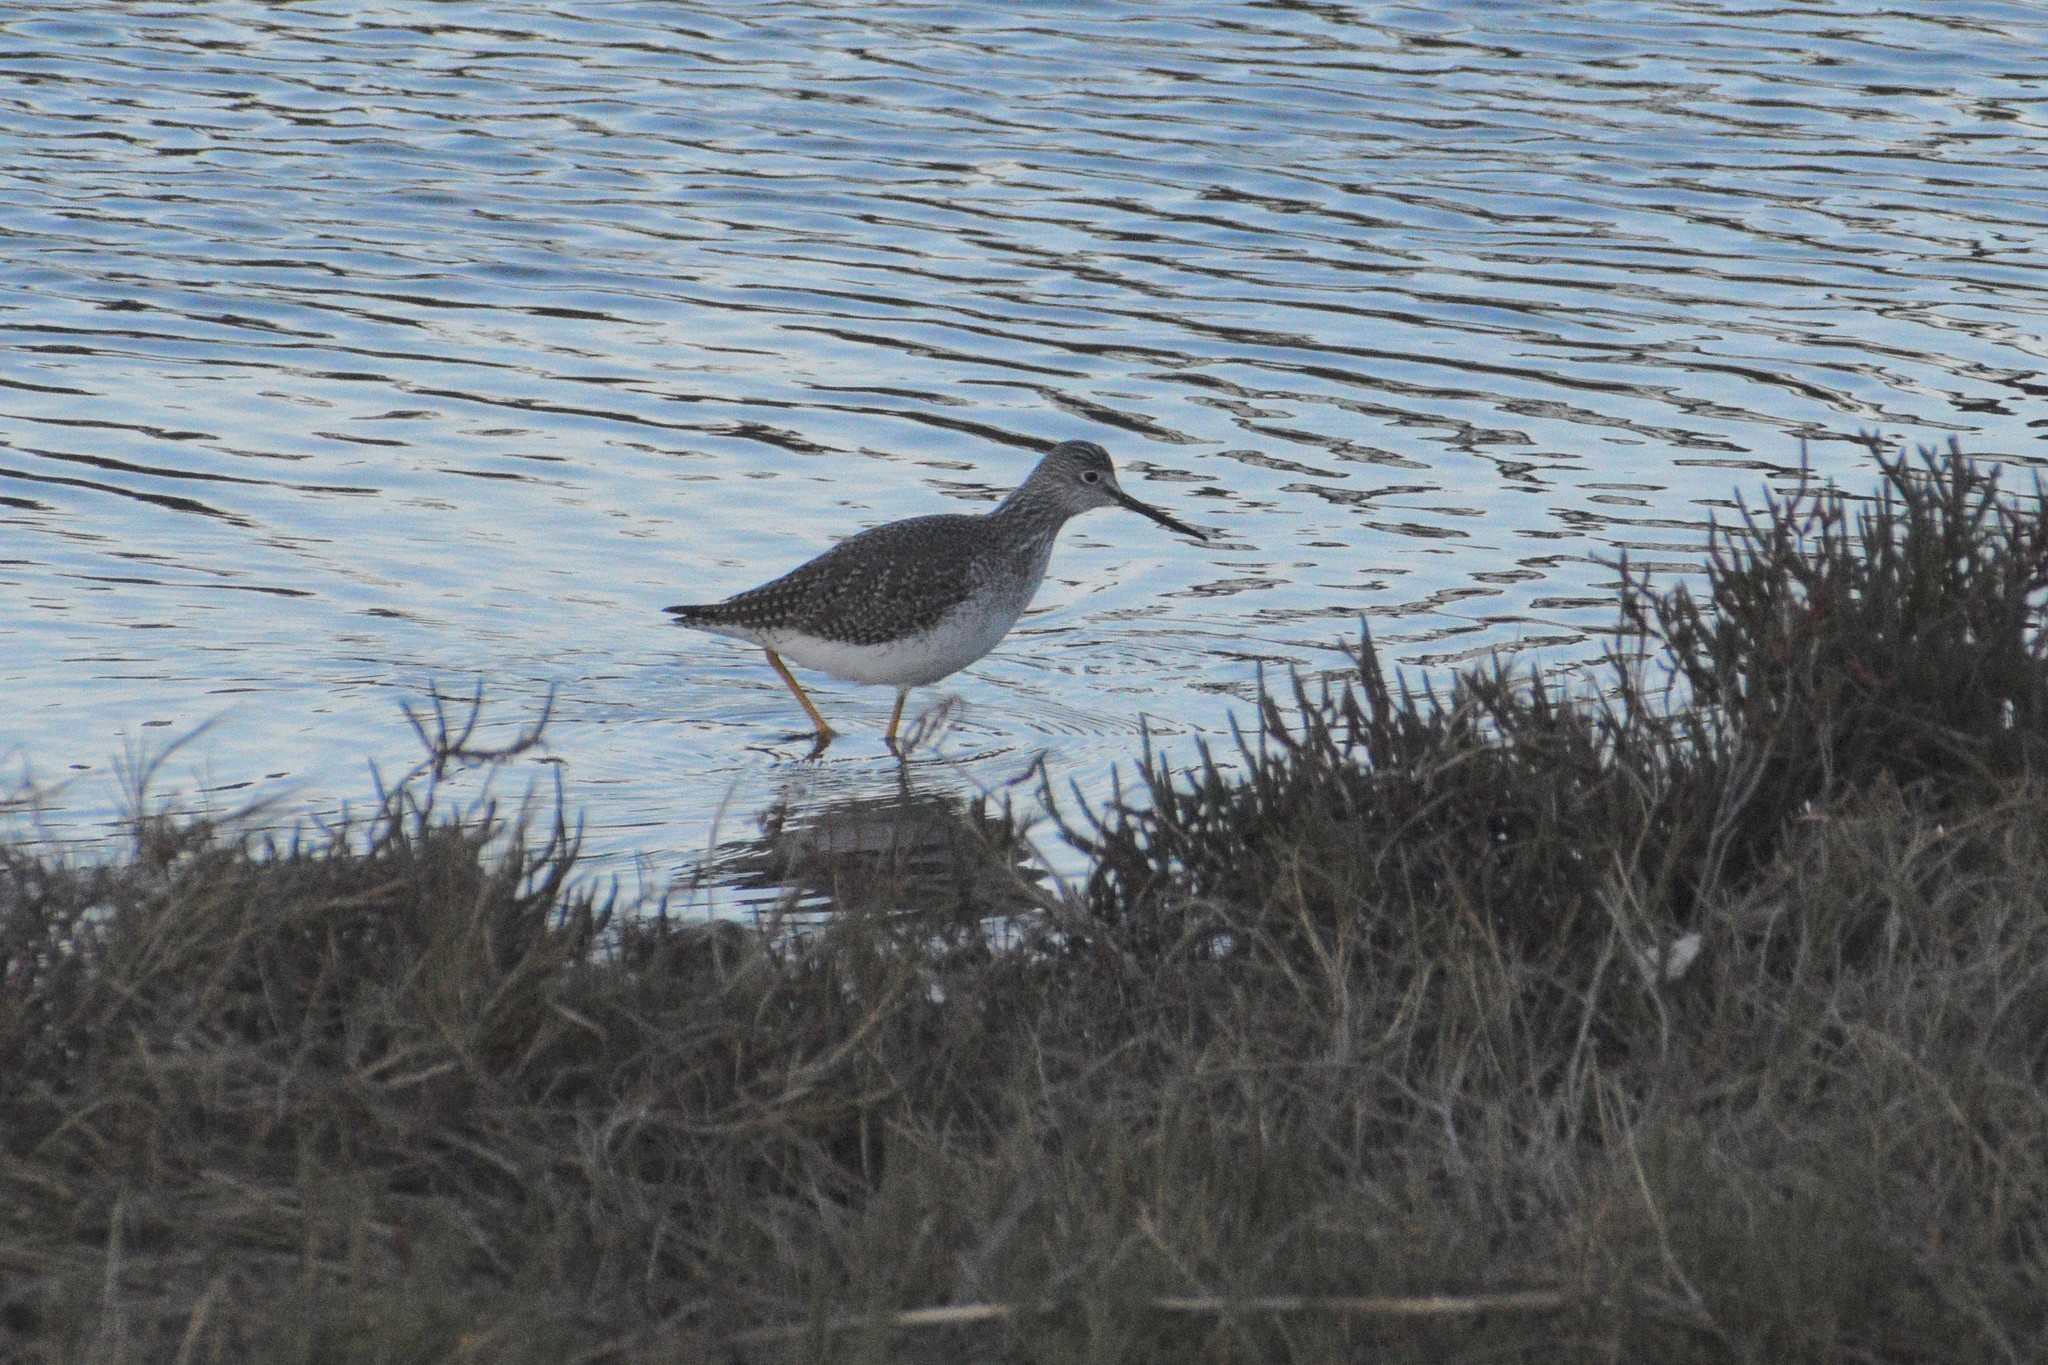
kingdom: Animalia
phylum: Chordata
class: Aves
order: Charadriiformes
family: Scolopacidae
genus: Tringa
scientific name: Tringa melanoleuca
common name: Greater yellowlegs
